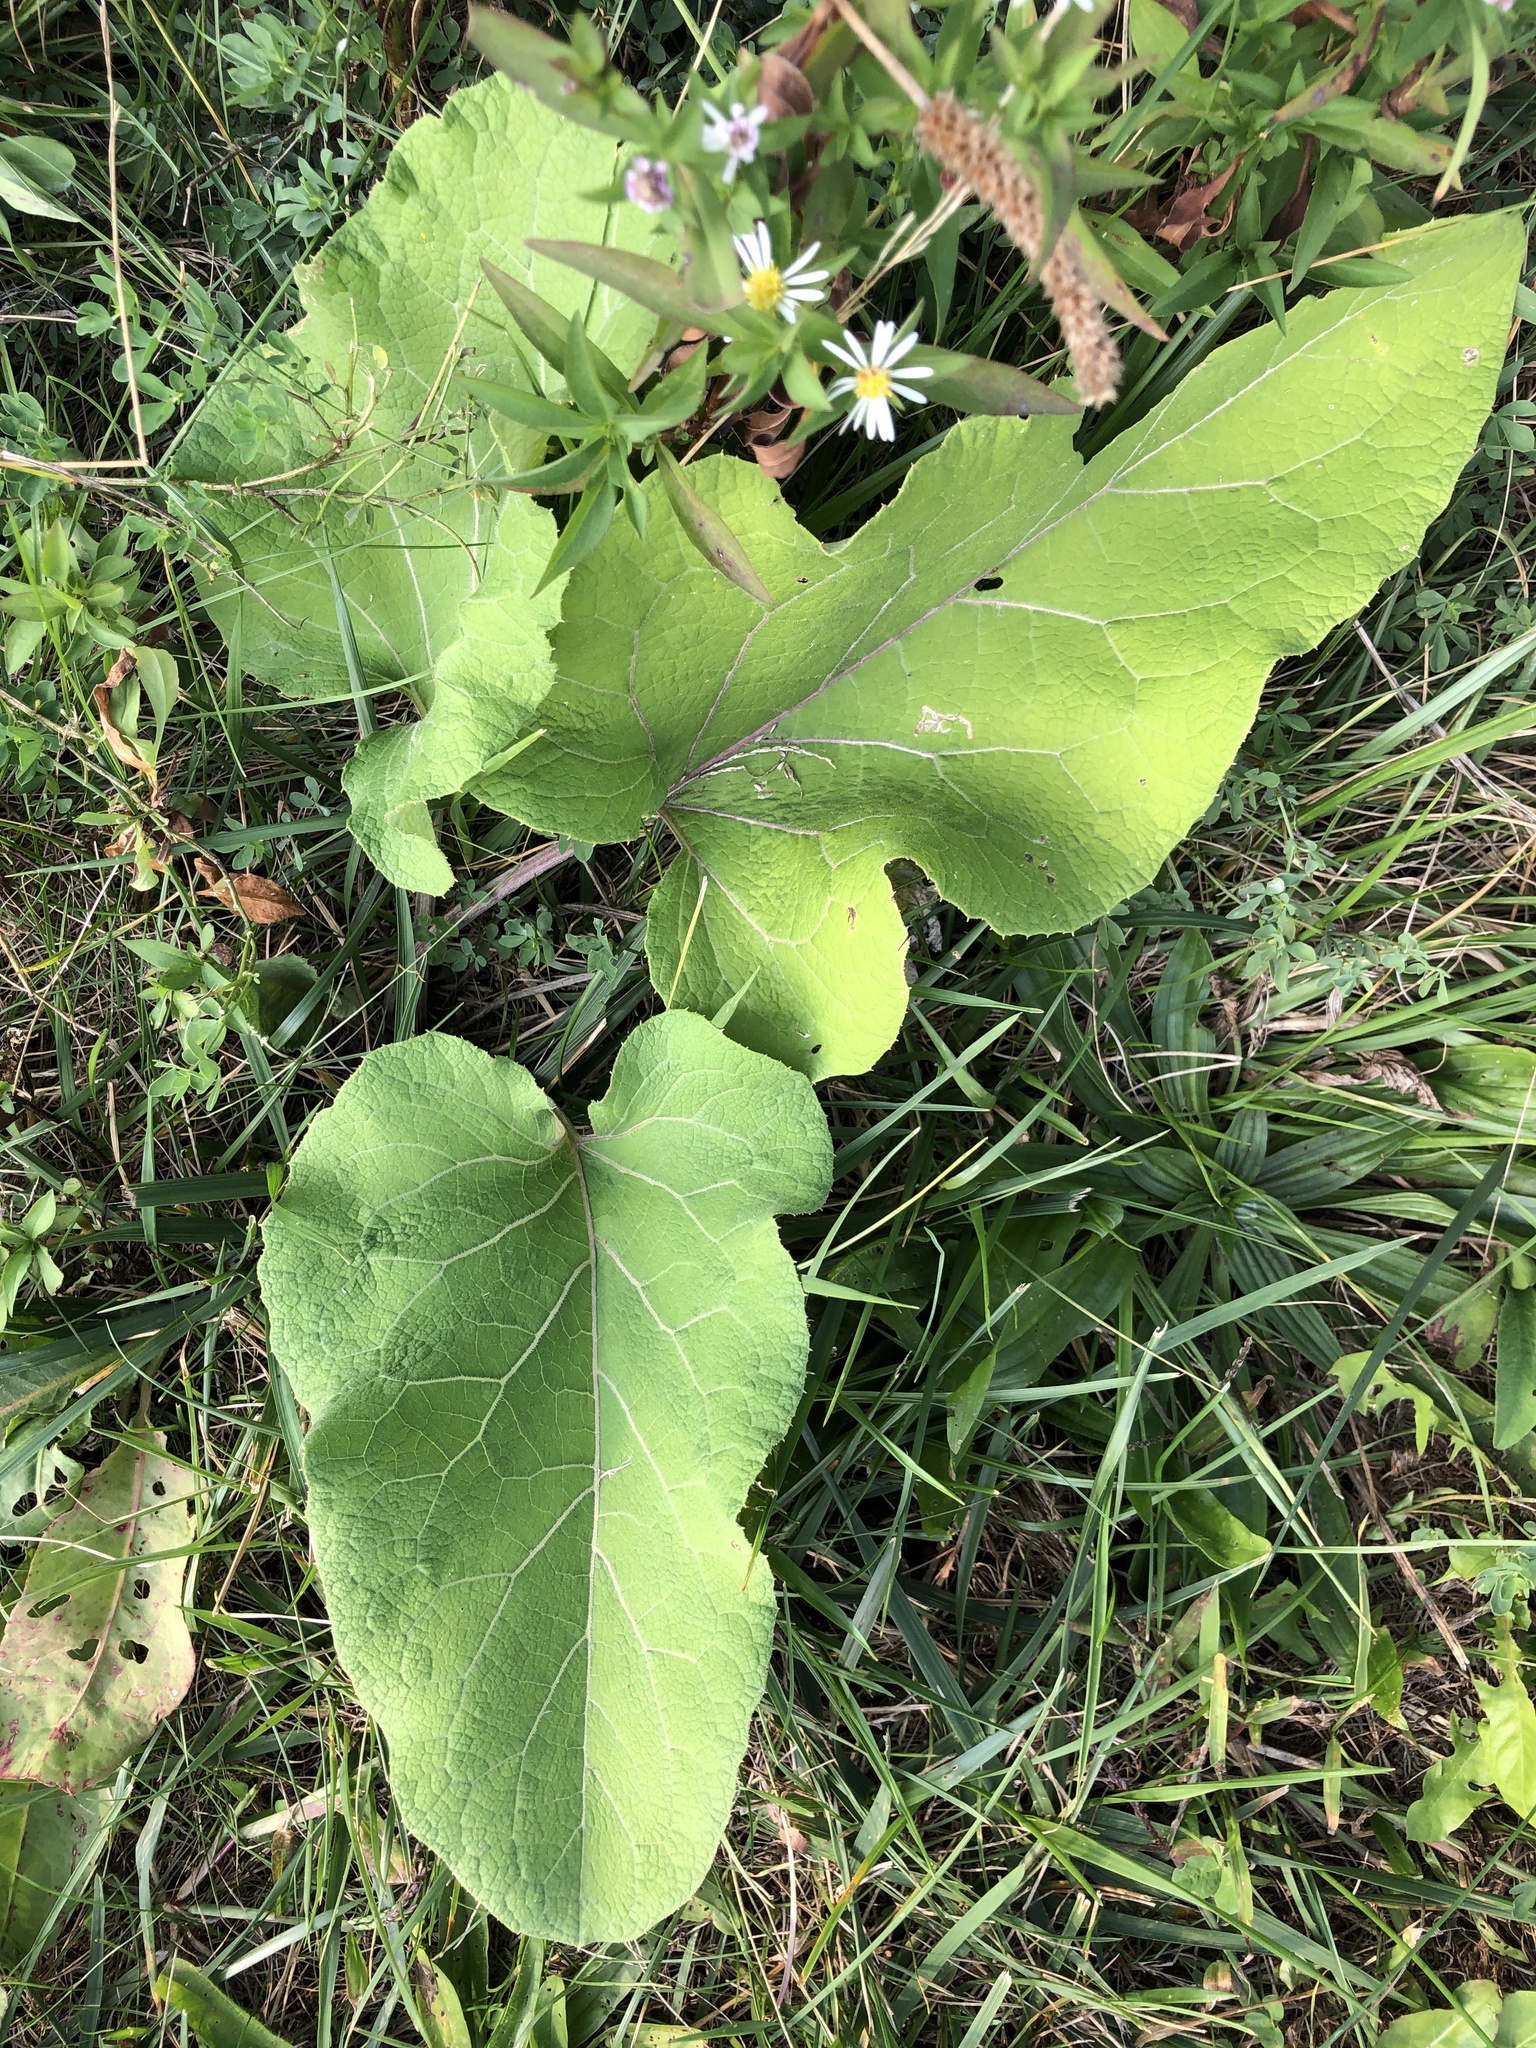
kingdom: Plantae
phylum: Tracheophyta
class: Magnoliopsida
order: Asterales
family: Asteraceae
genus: Arctium
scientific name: Arctium
